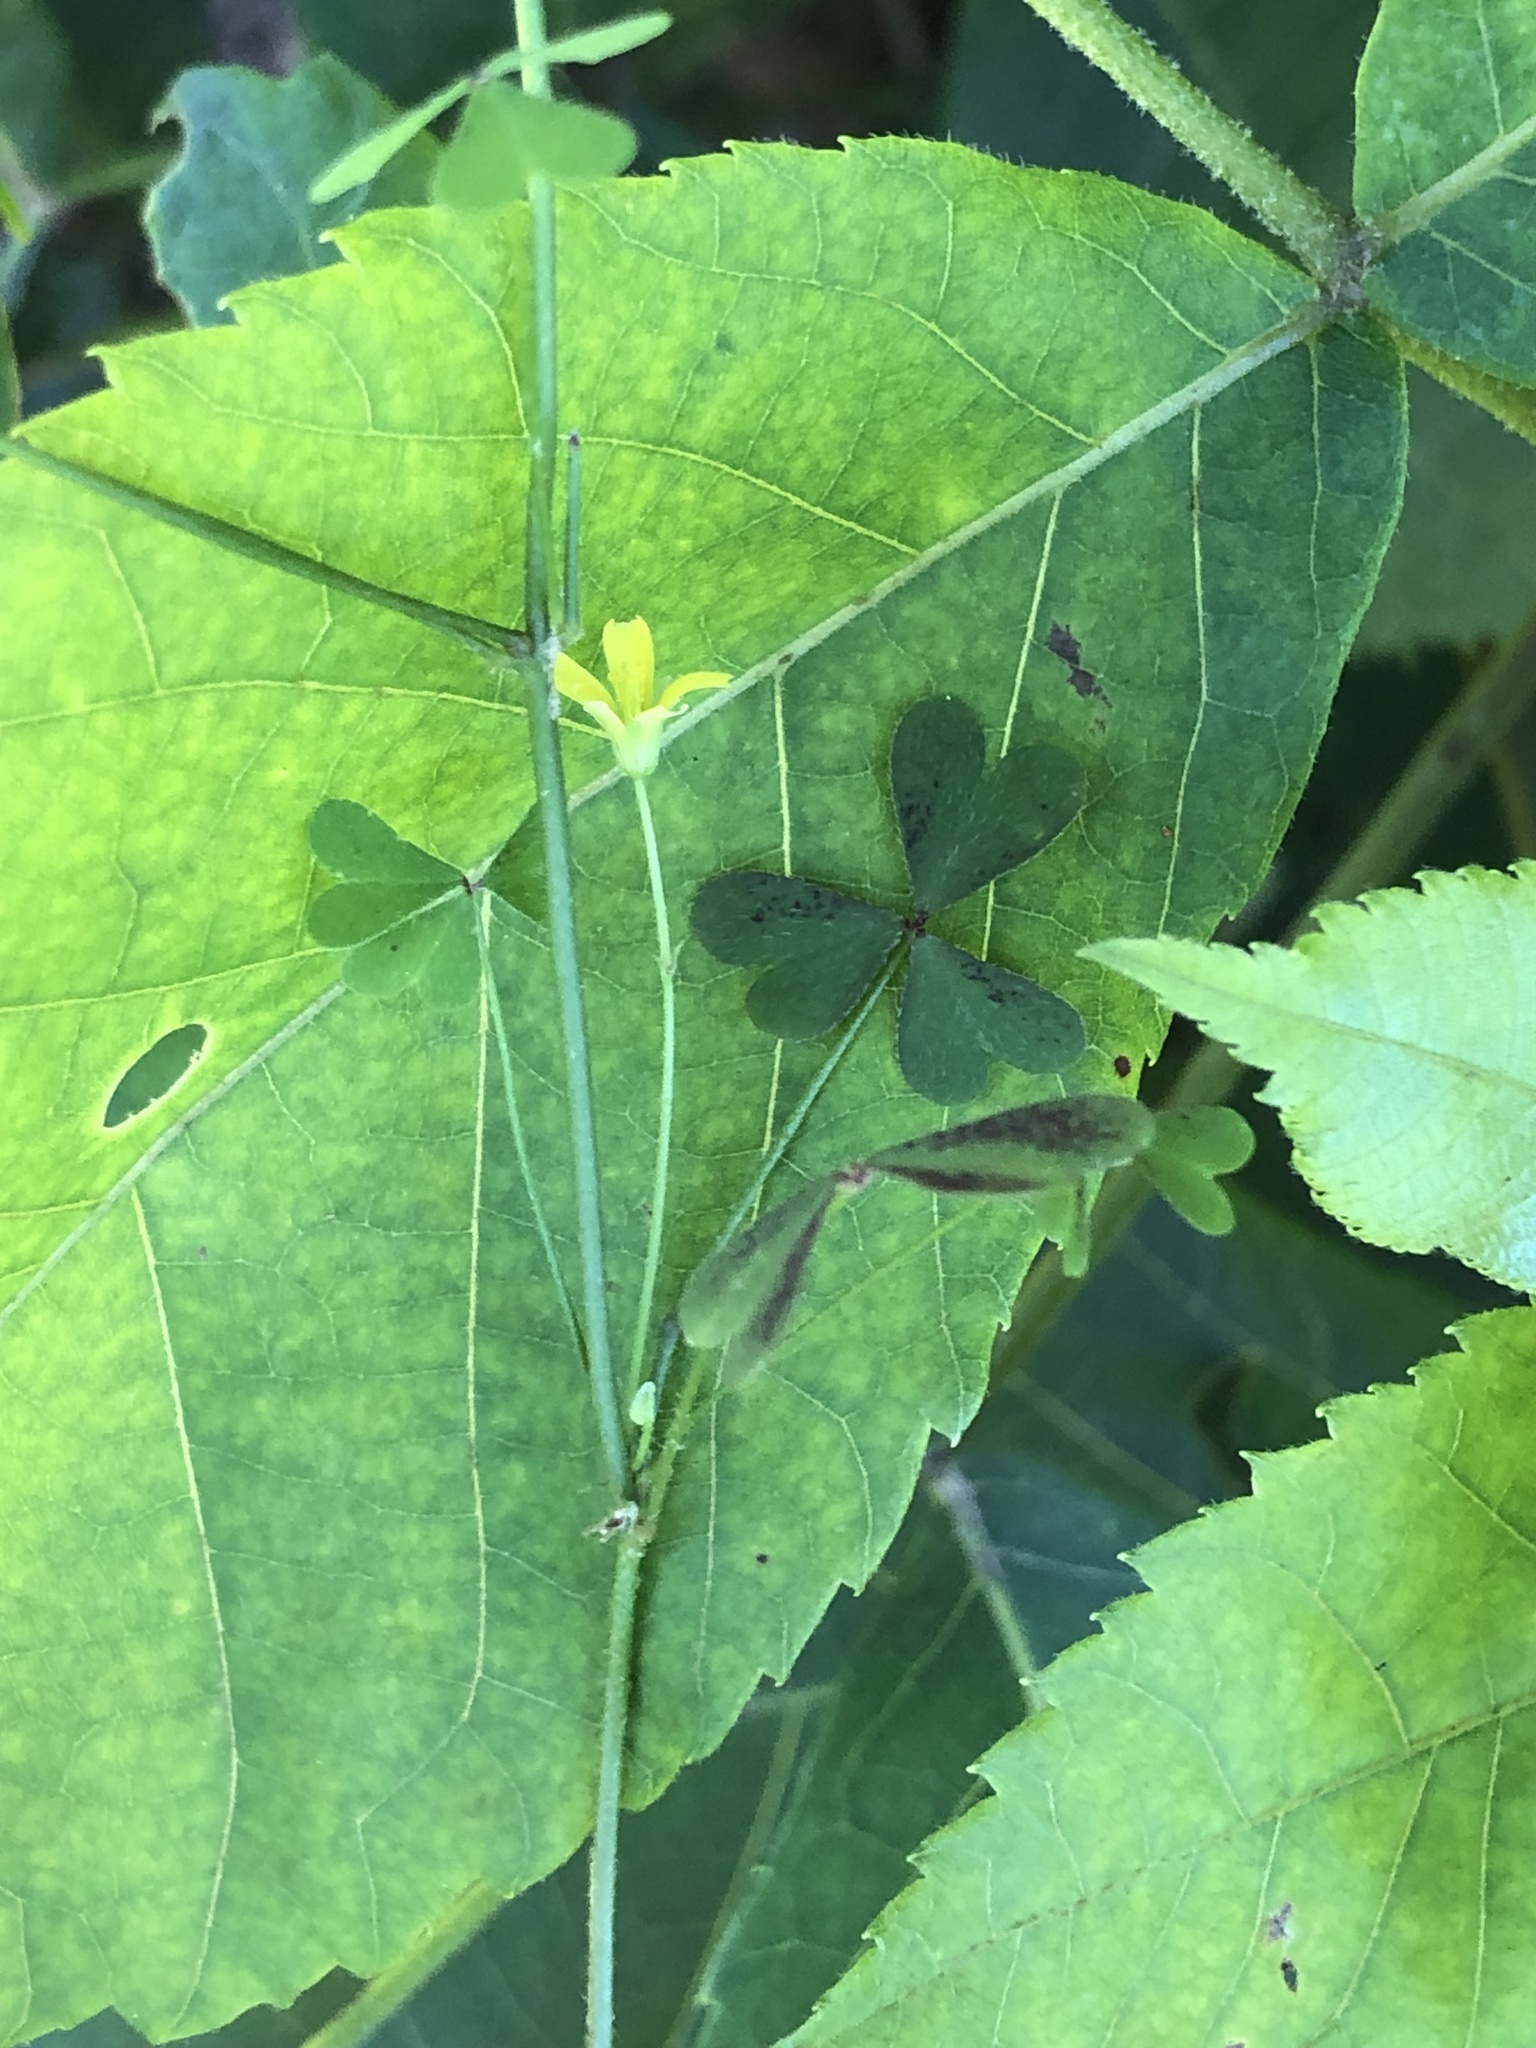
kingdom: Plantae
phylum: Tracheophyta
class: Magnoliopsida
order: Oxalidales
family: Oxalidaceae
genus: Oxalis
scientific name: Oxalis florida
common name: Flowering yellow woodsorrel
